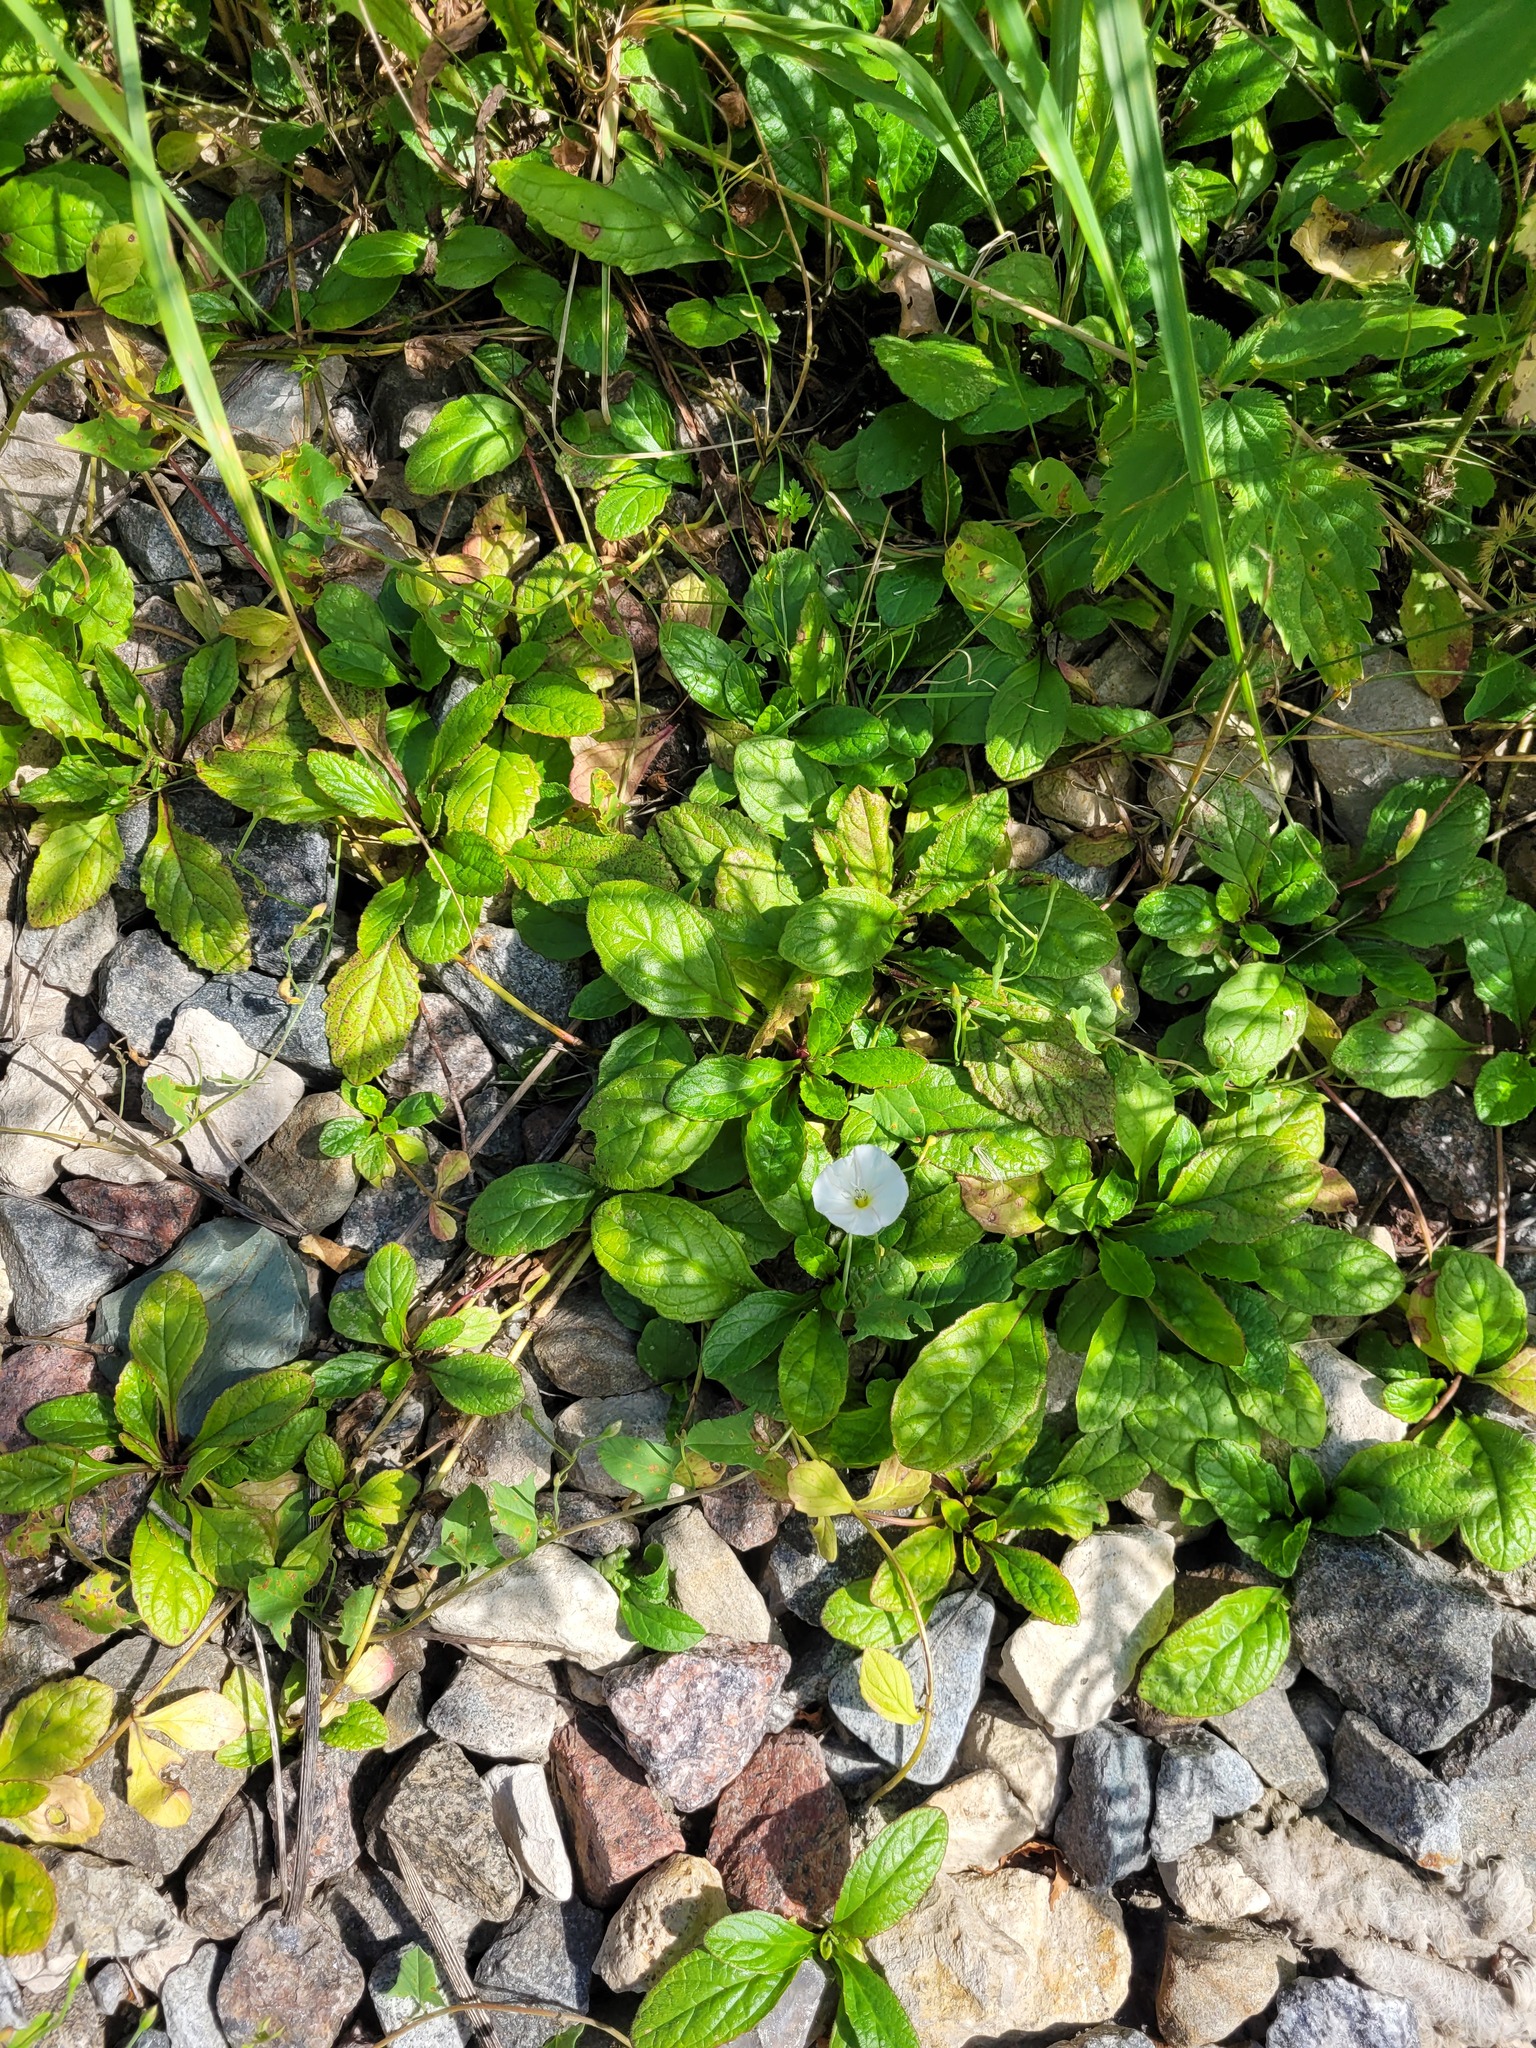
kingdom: Plantae
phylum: Tracheophyta
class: Magnoliopsida
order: Lamiales
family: Lamiaceae
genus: Ajuga
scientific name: Ajuga reptans
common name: Bugle
